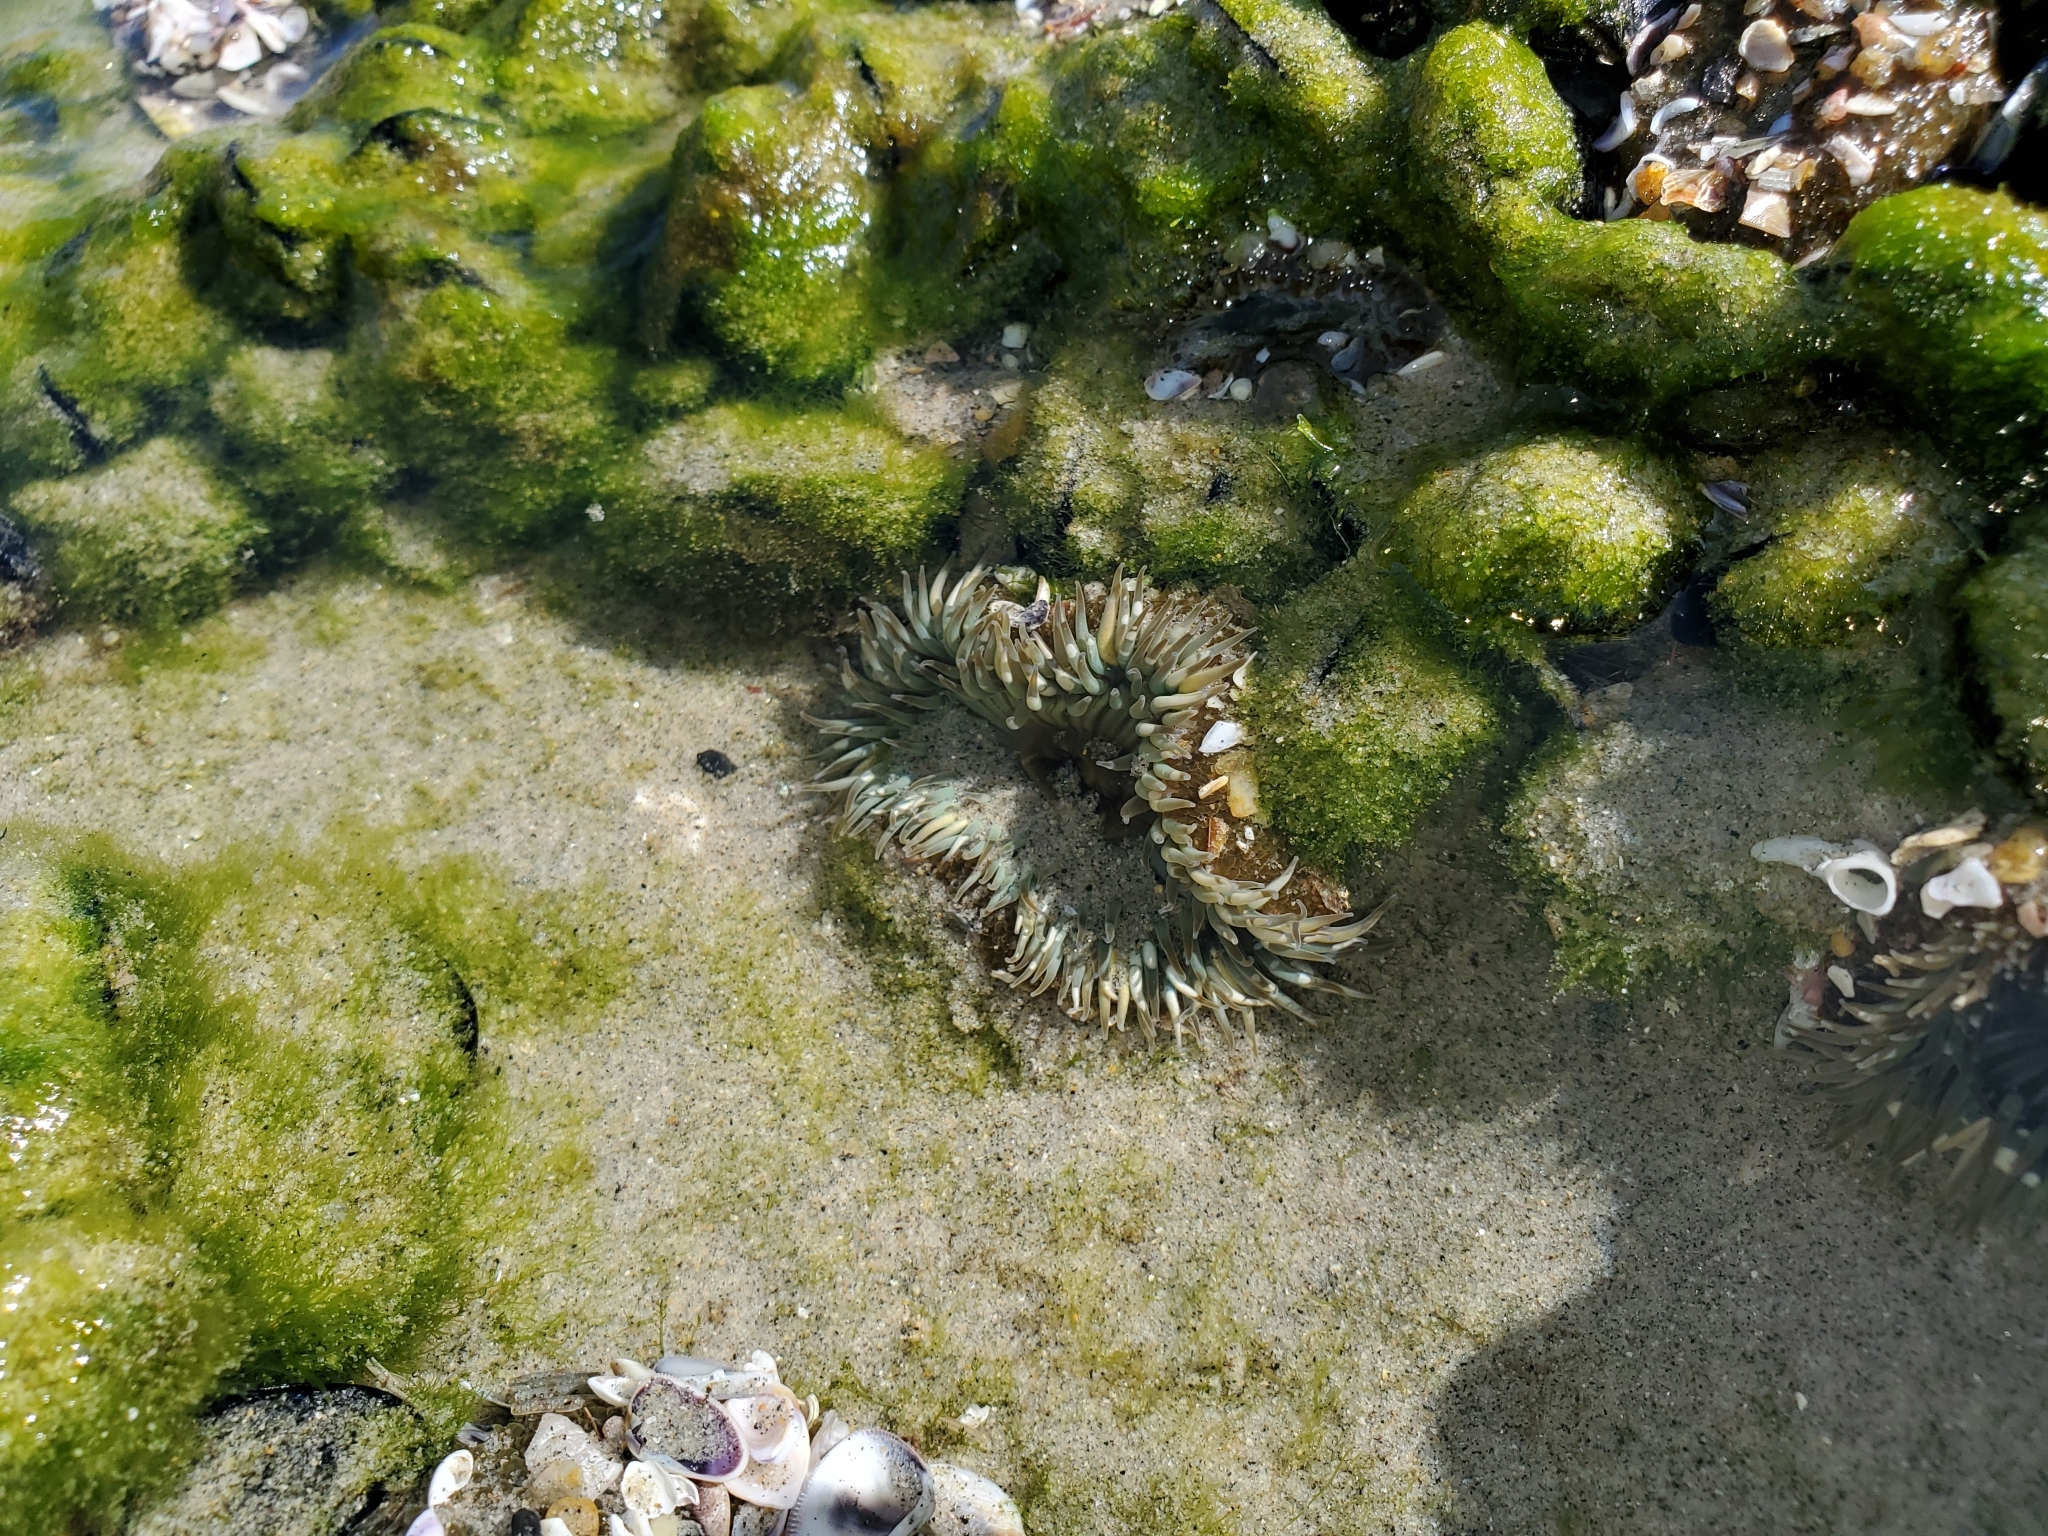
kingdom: Animalia
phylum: Cnidaria
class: Anthozoa
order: Actiniaria
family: Actiniidae
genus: Anthopleura
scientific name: Anthopleura sola
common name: Sun anemone
